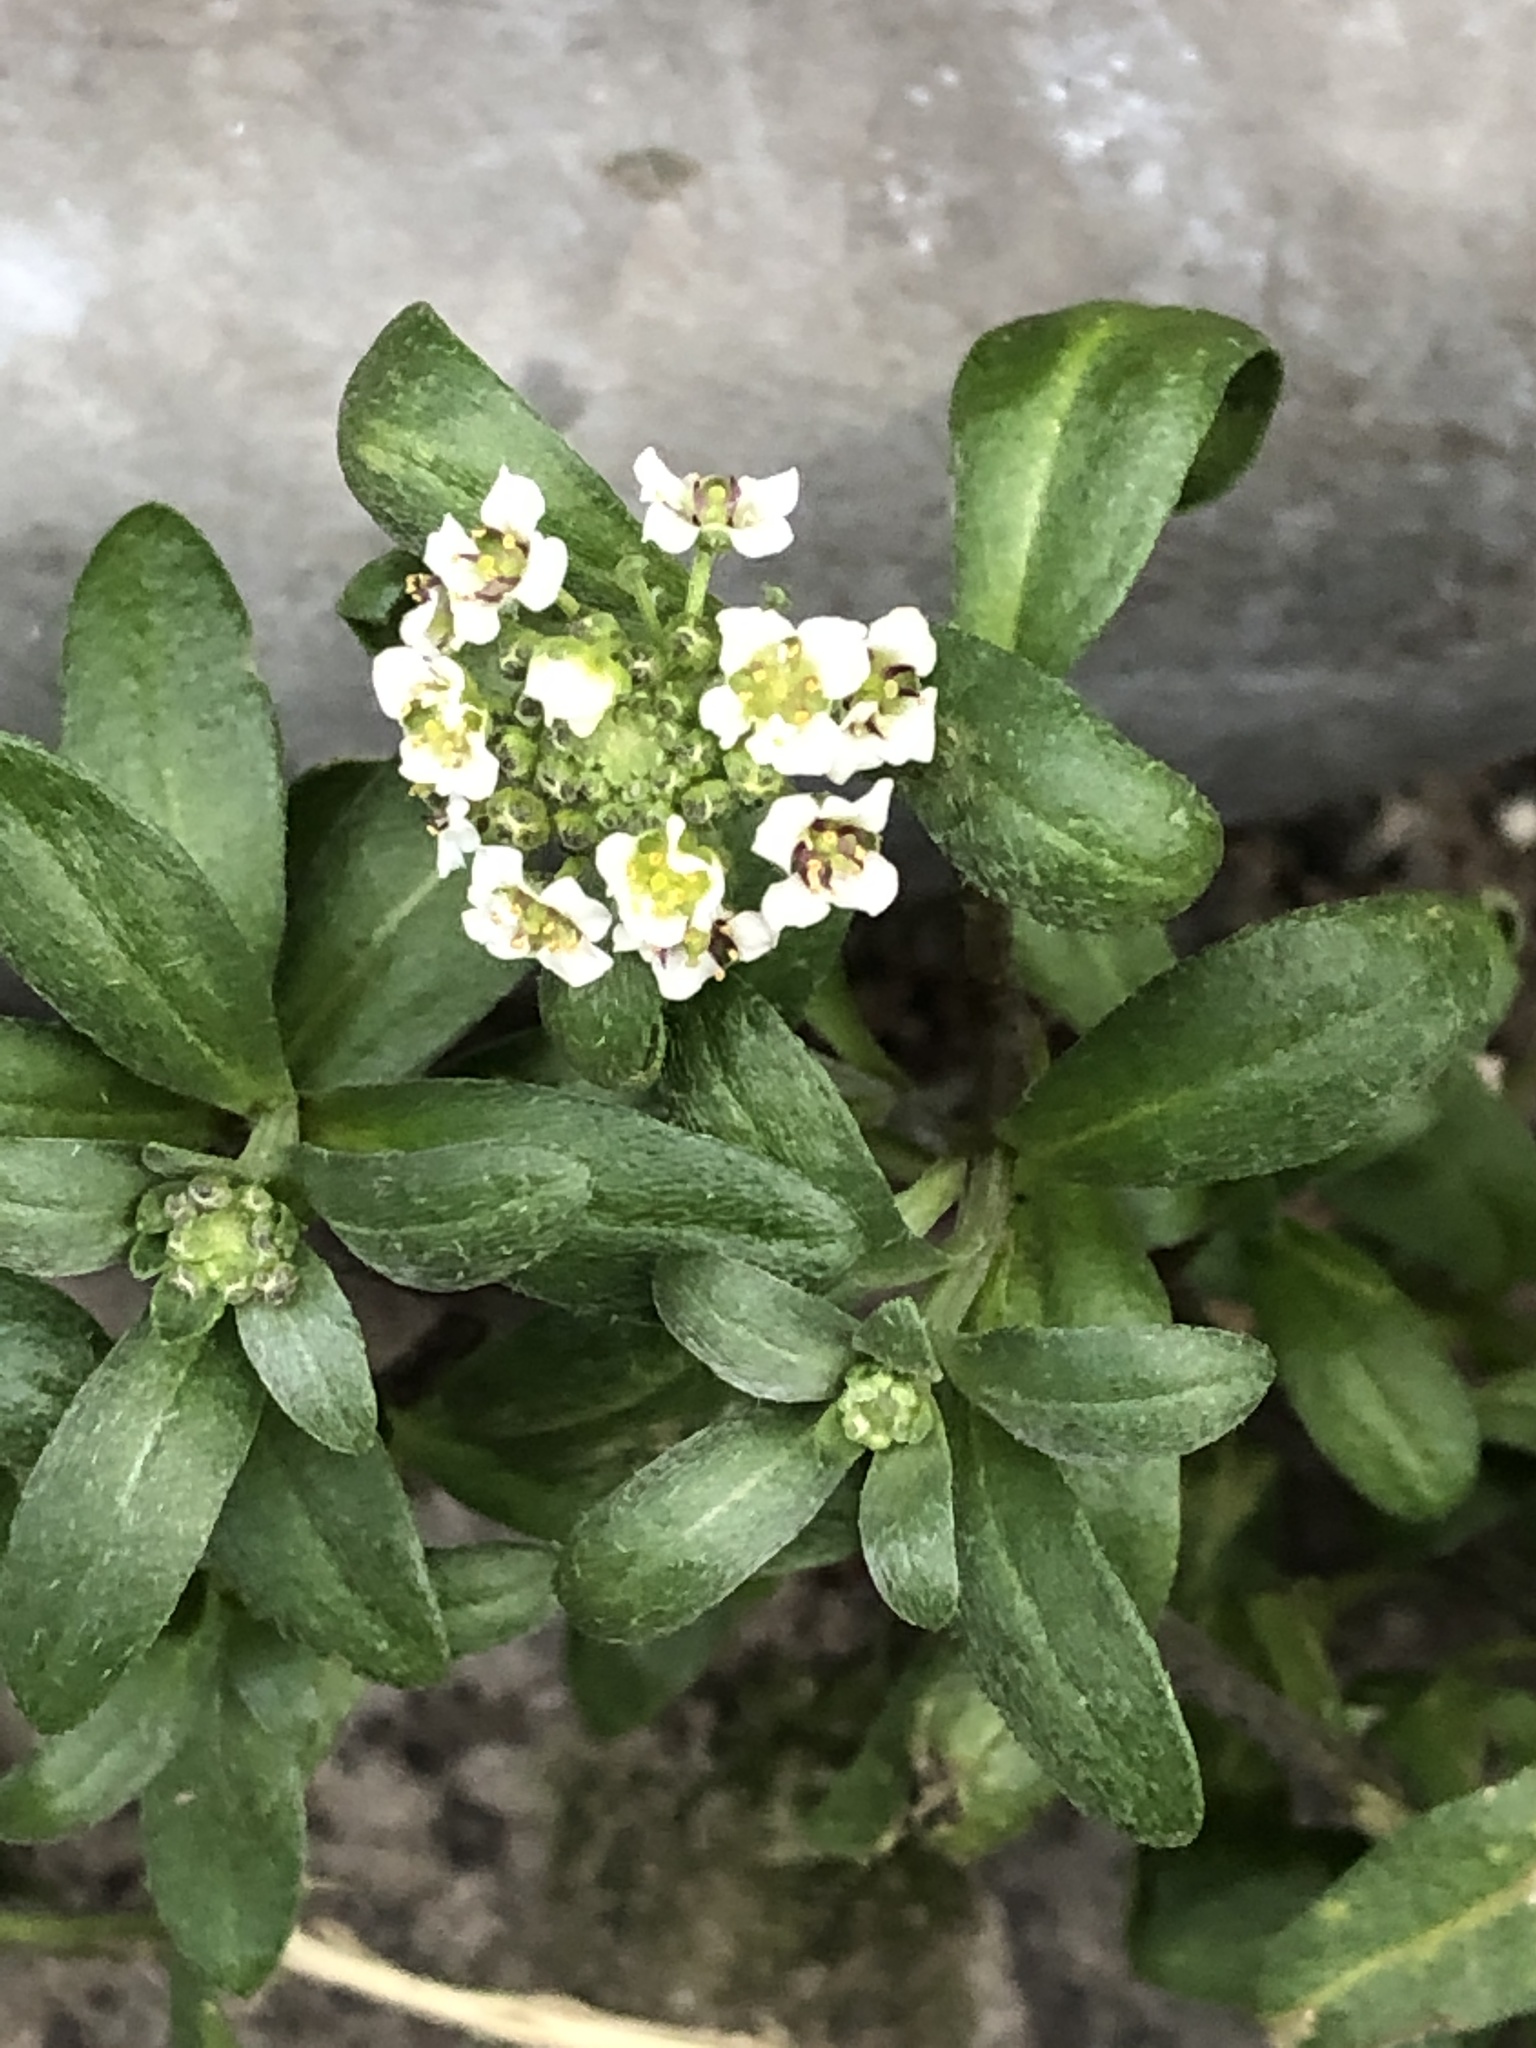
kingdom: Plantae
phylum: Tracheophyta
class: Magnoliopsida
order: Brassicales
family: Brassicaceae
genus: Lobularia
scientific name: Lobularia maritima
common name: Sweet alison
